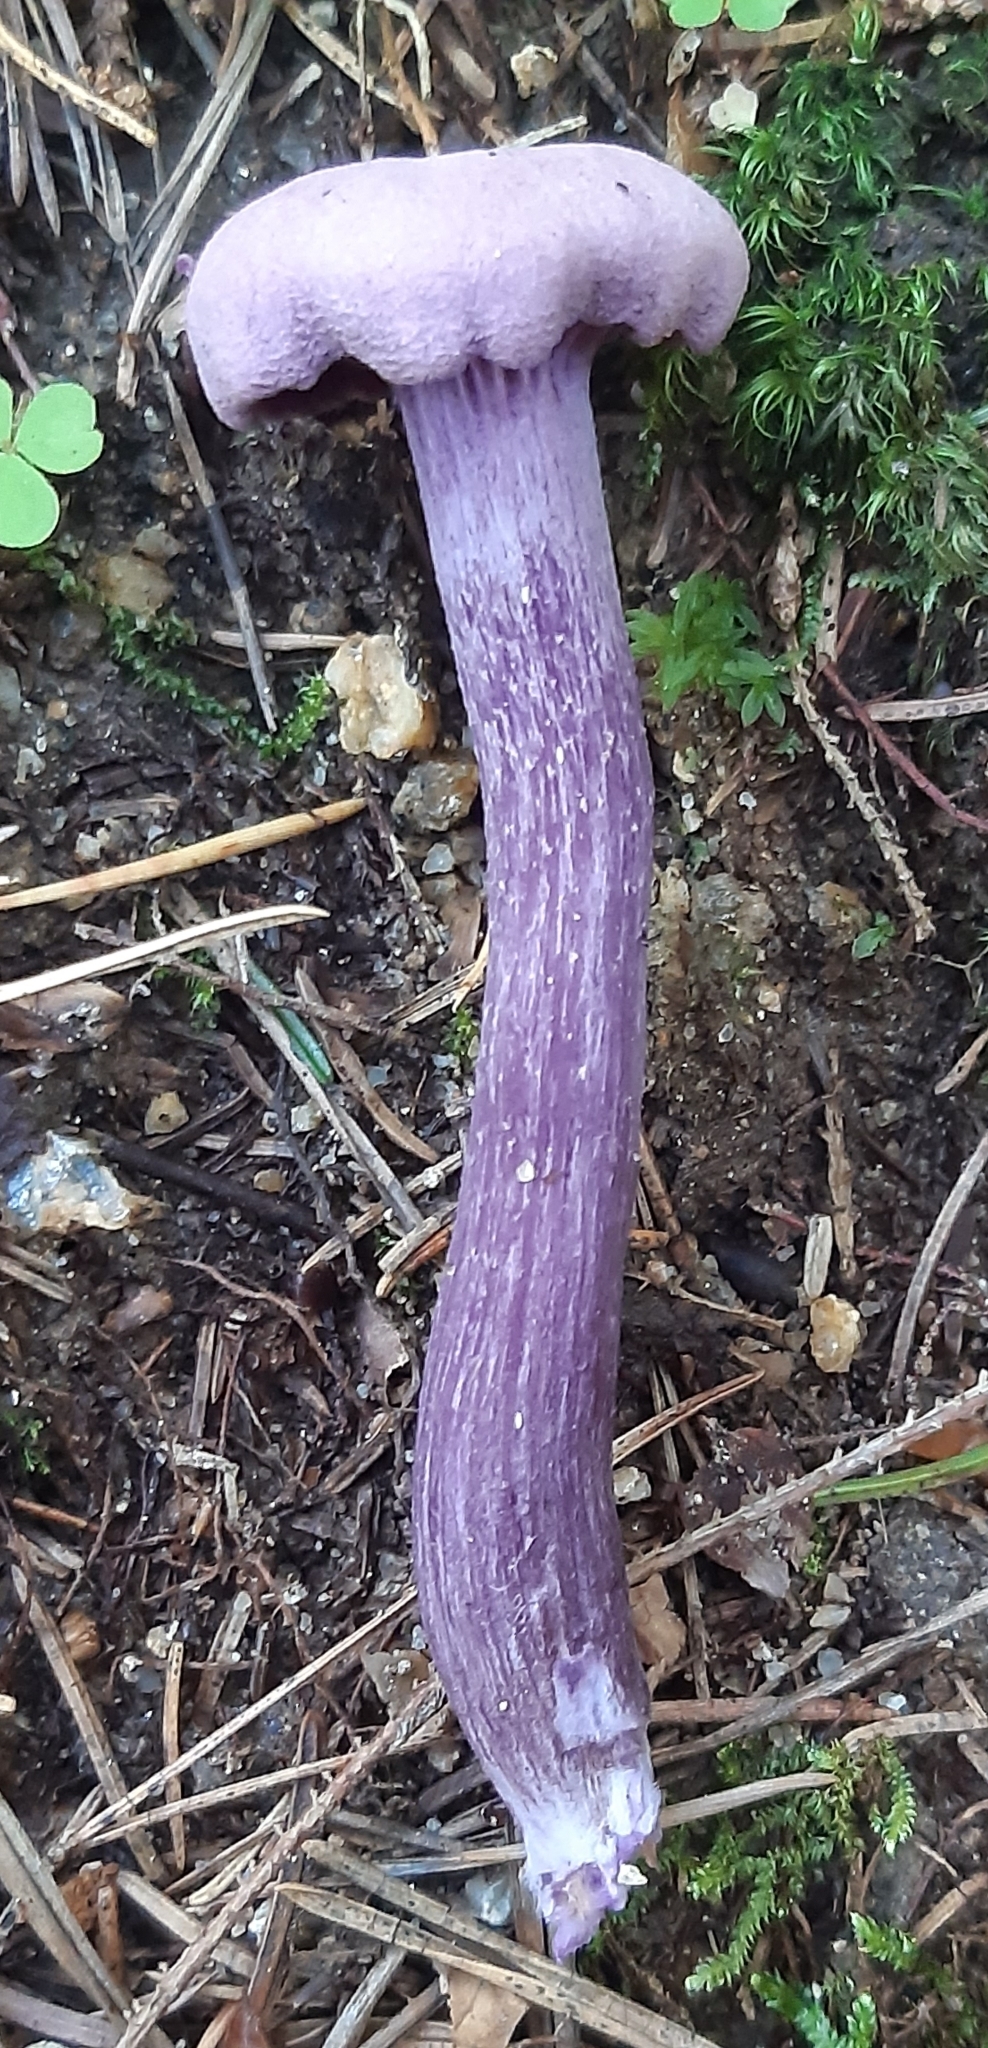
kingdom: Fungi
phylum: Basidiomycota
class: Agaricomycetes
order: Agaricales
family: Hydnangiaceae
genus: Laccaria
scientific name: Laccaria amethystina
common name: Amethyst deceiver
